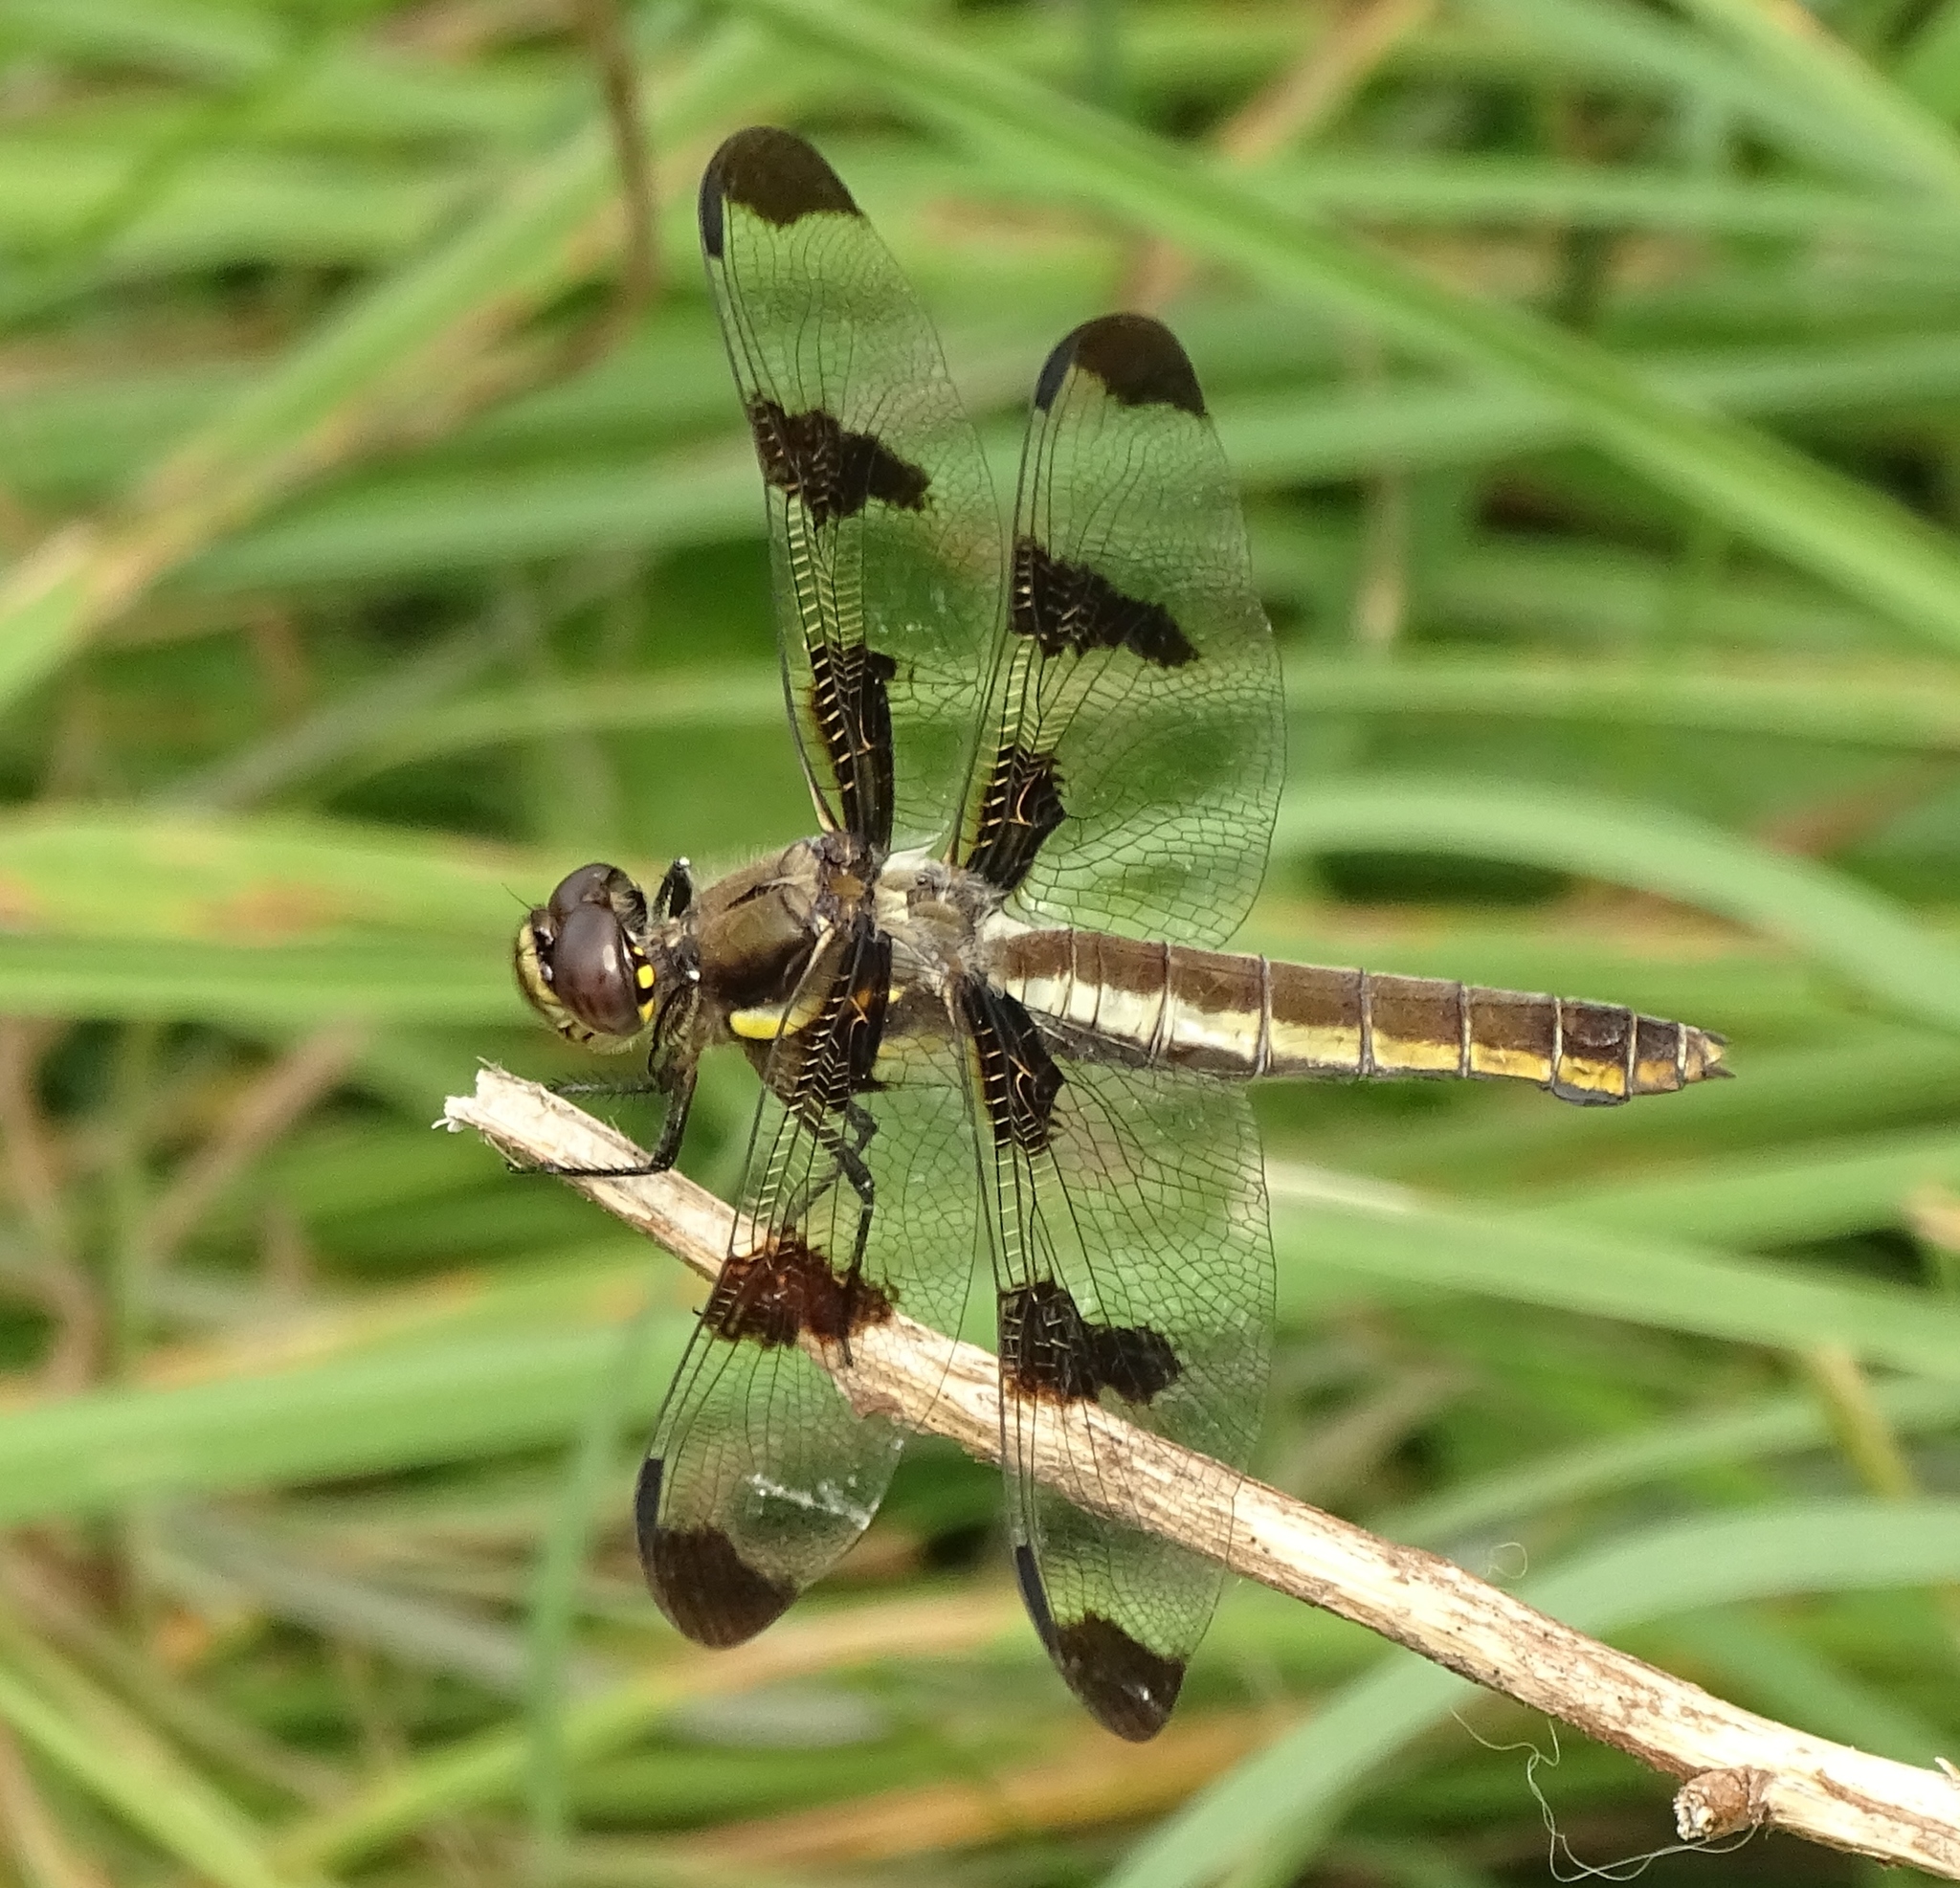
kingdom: Animalia
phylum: Arthropoda
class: Insecta
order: Odonata
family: Libellulidae
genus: Libellula
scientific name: Libellula pulchella
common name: Twelve-spotted skimmer
